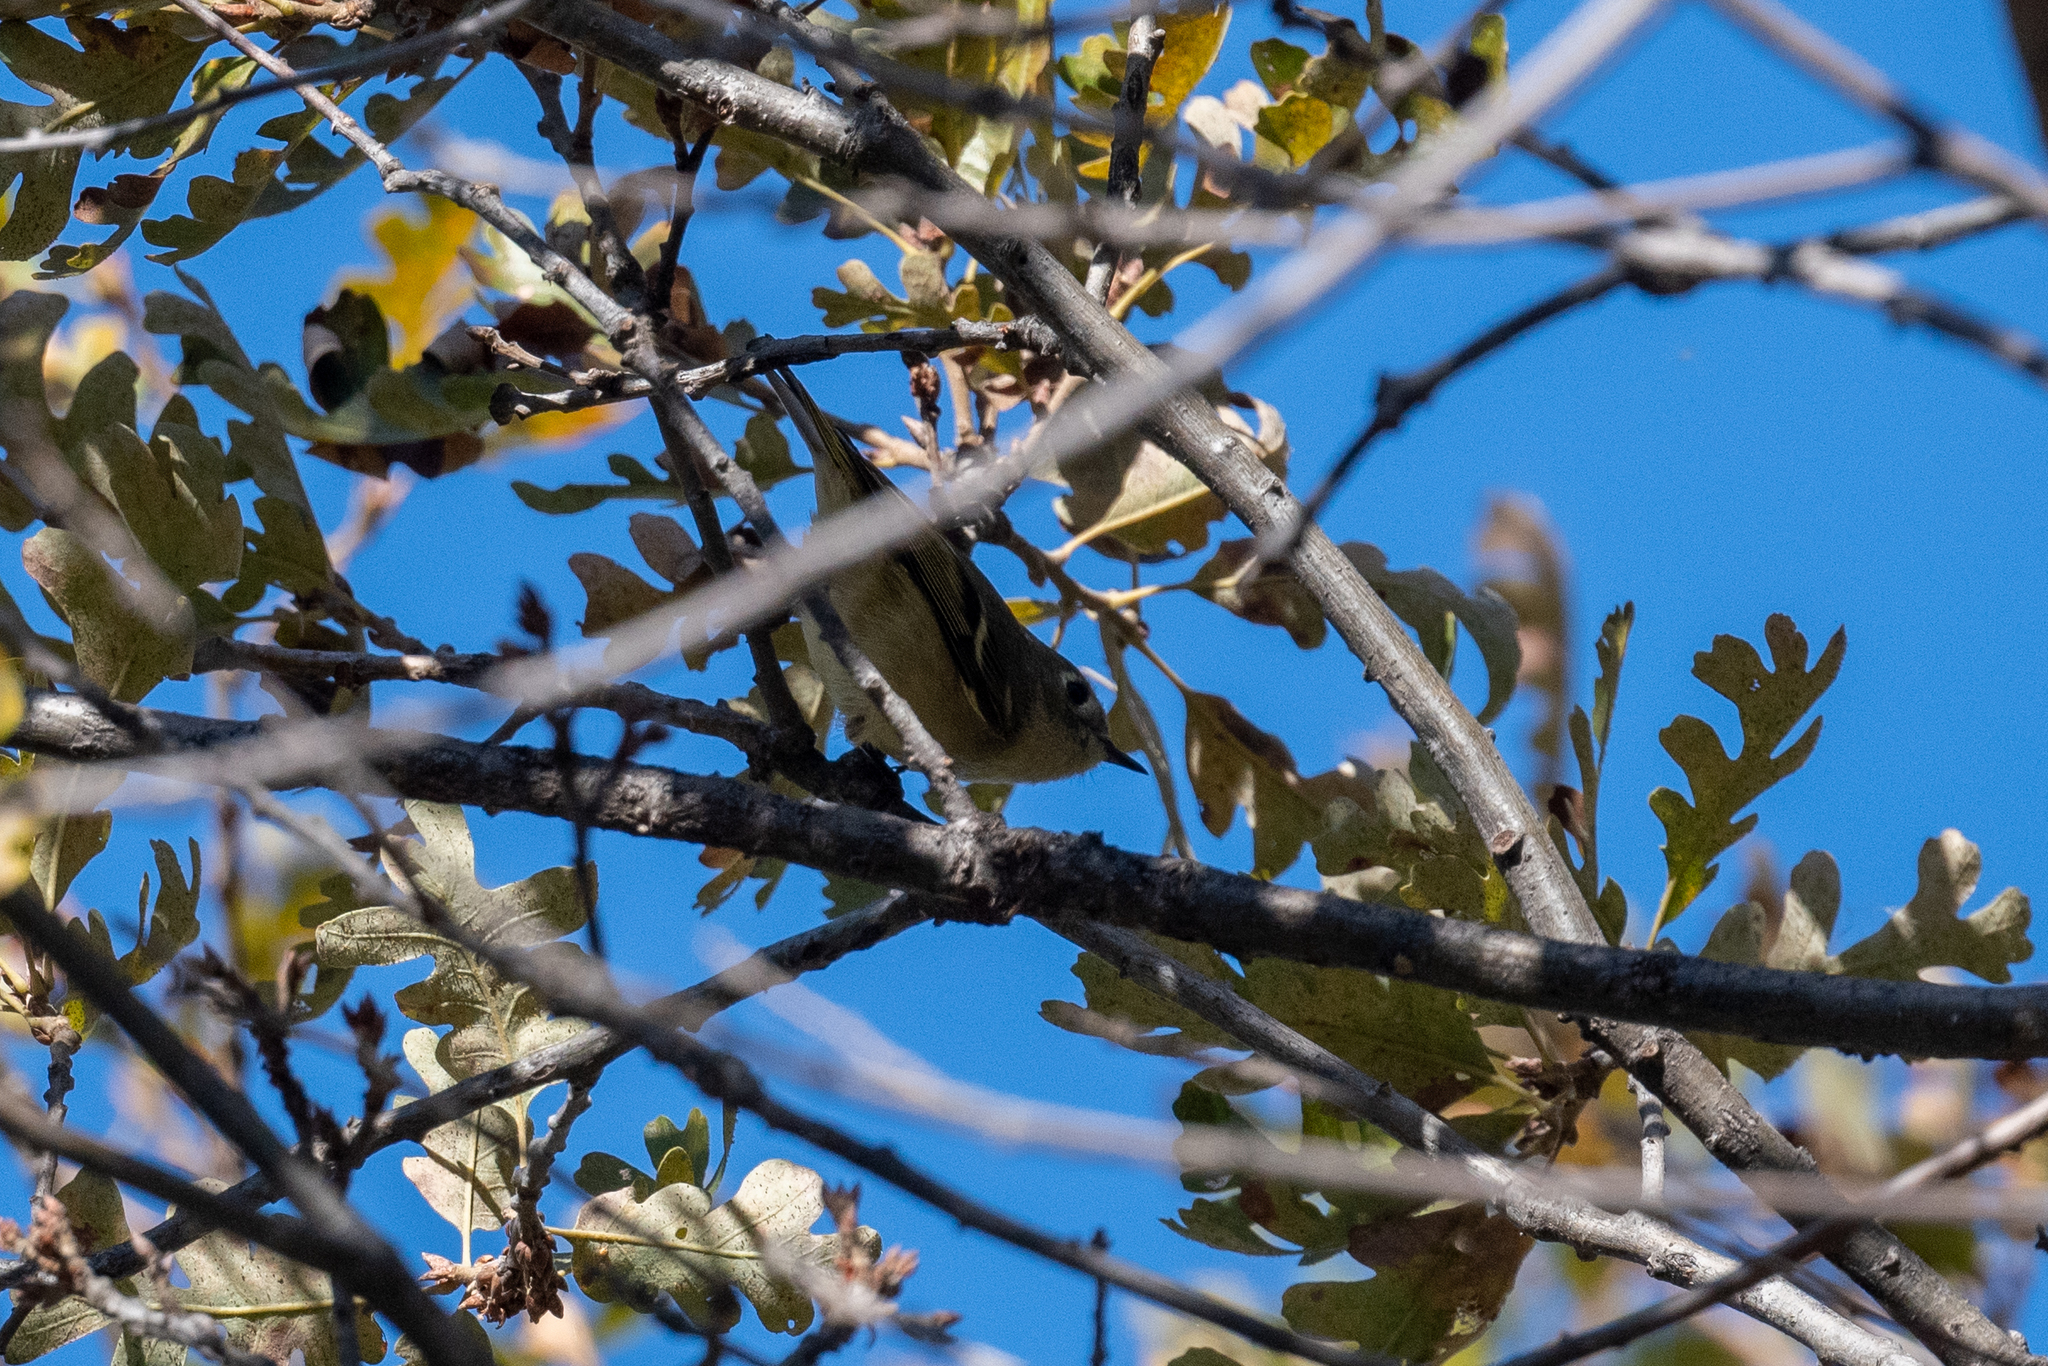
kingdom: Animalia
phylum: Chordata
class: Aves
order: Passeriformes
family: Regulidae
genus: Regulus
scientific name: Regulus calendula
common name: Ruby-crowned kinglet
